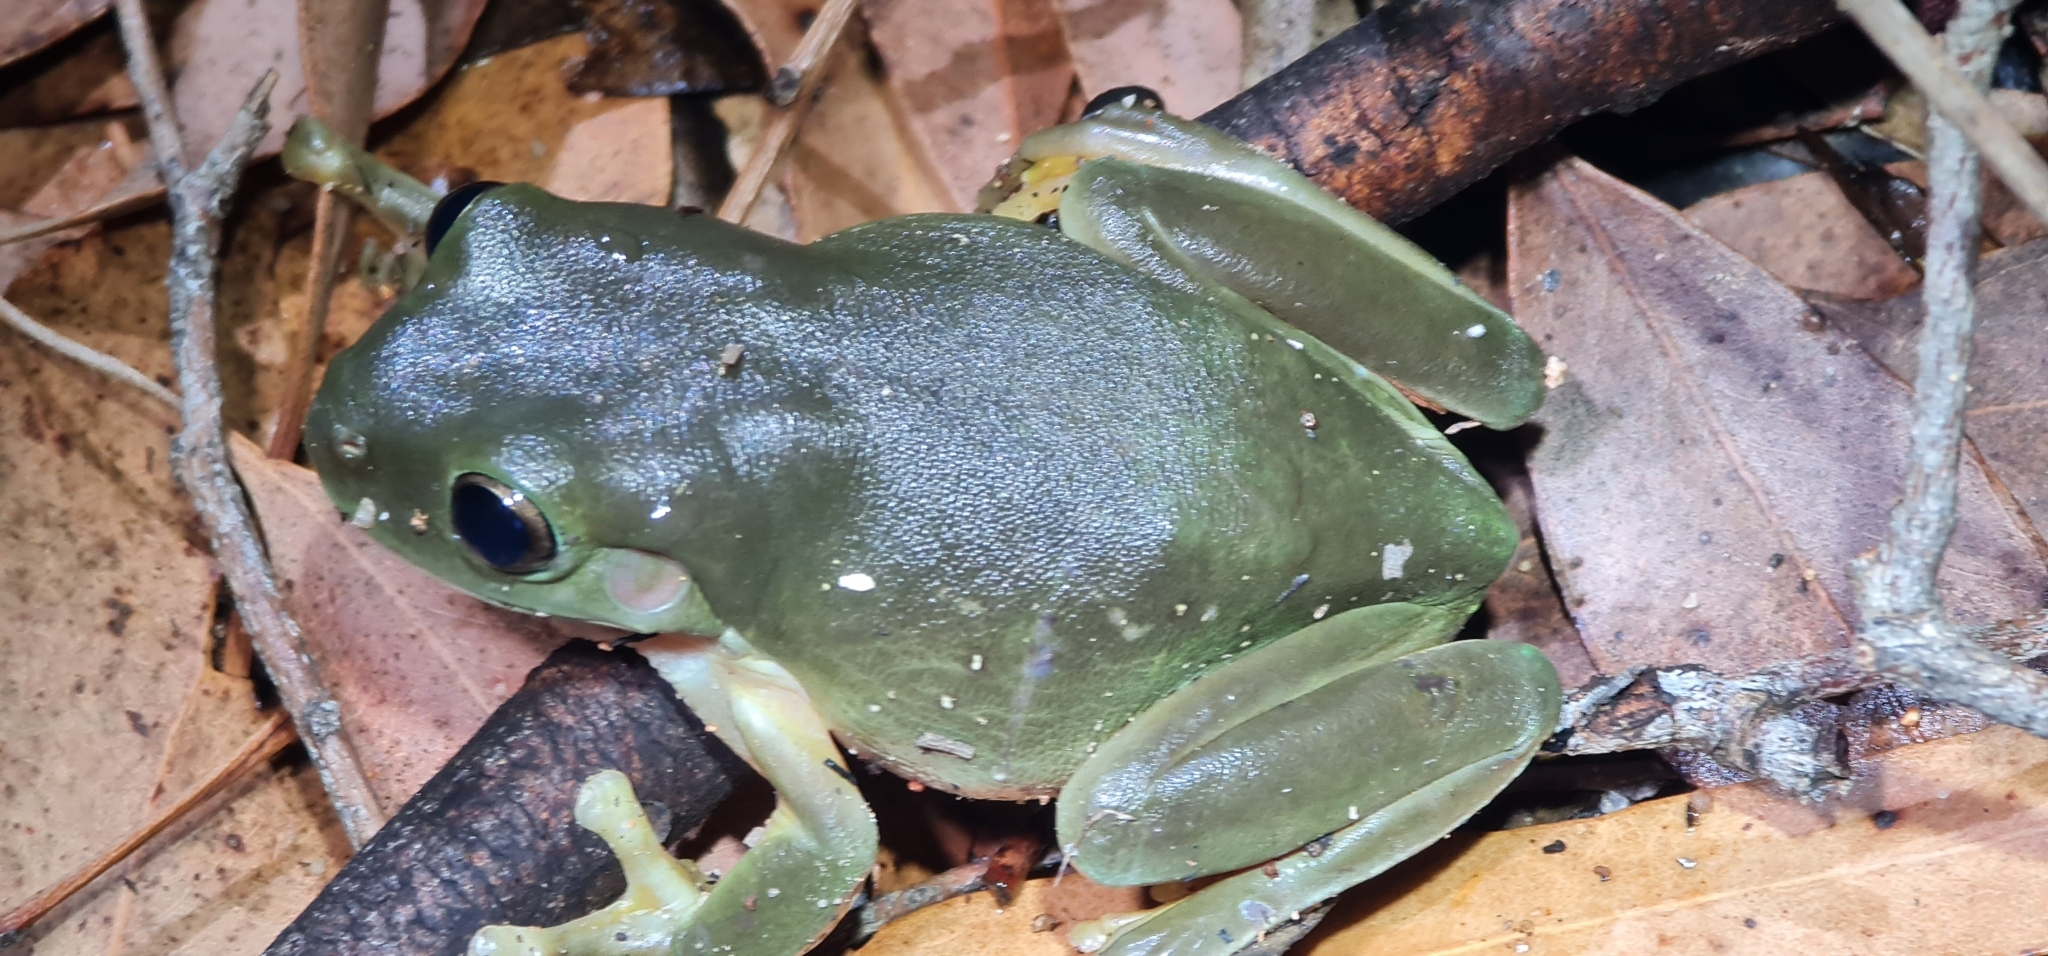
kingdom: Animalia
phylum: Chordata
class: Amphibia
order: Anura
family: Pelodryadidae
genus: Ranoidea
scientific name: Ranoidea caerulea
